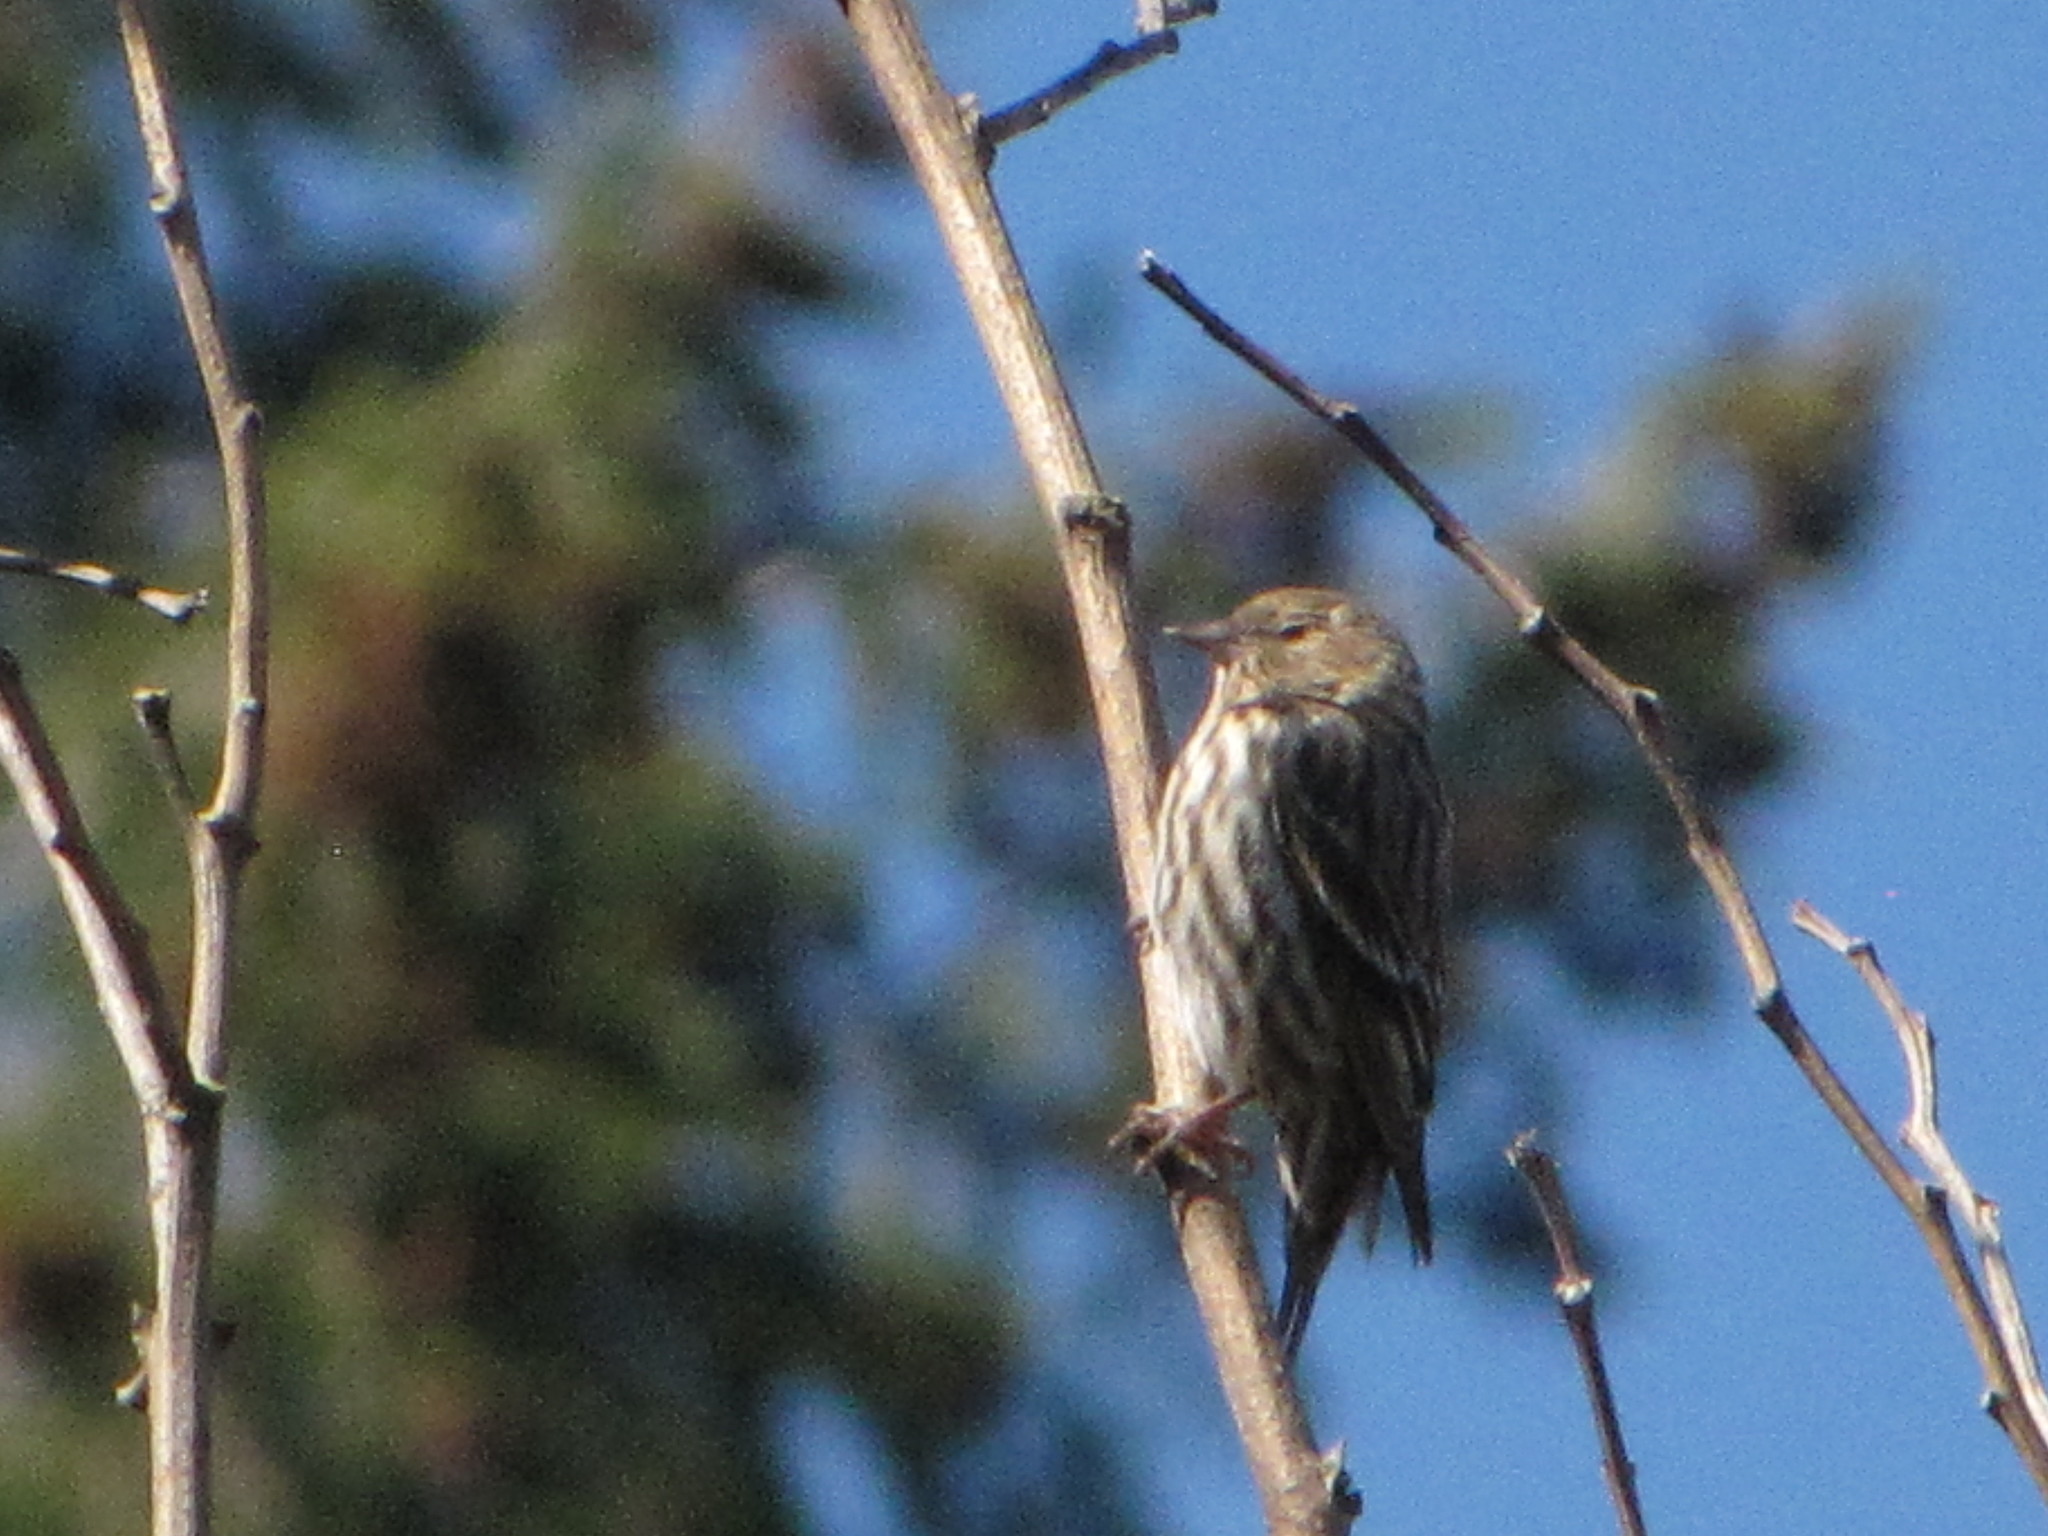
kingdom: Animalia
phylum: Chordata
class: Aves
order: Passeriformes
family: Fringillidae
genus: Spinus
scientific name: Spinus pinus
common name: Pine siskin
